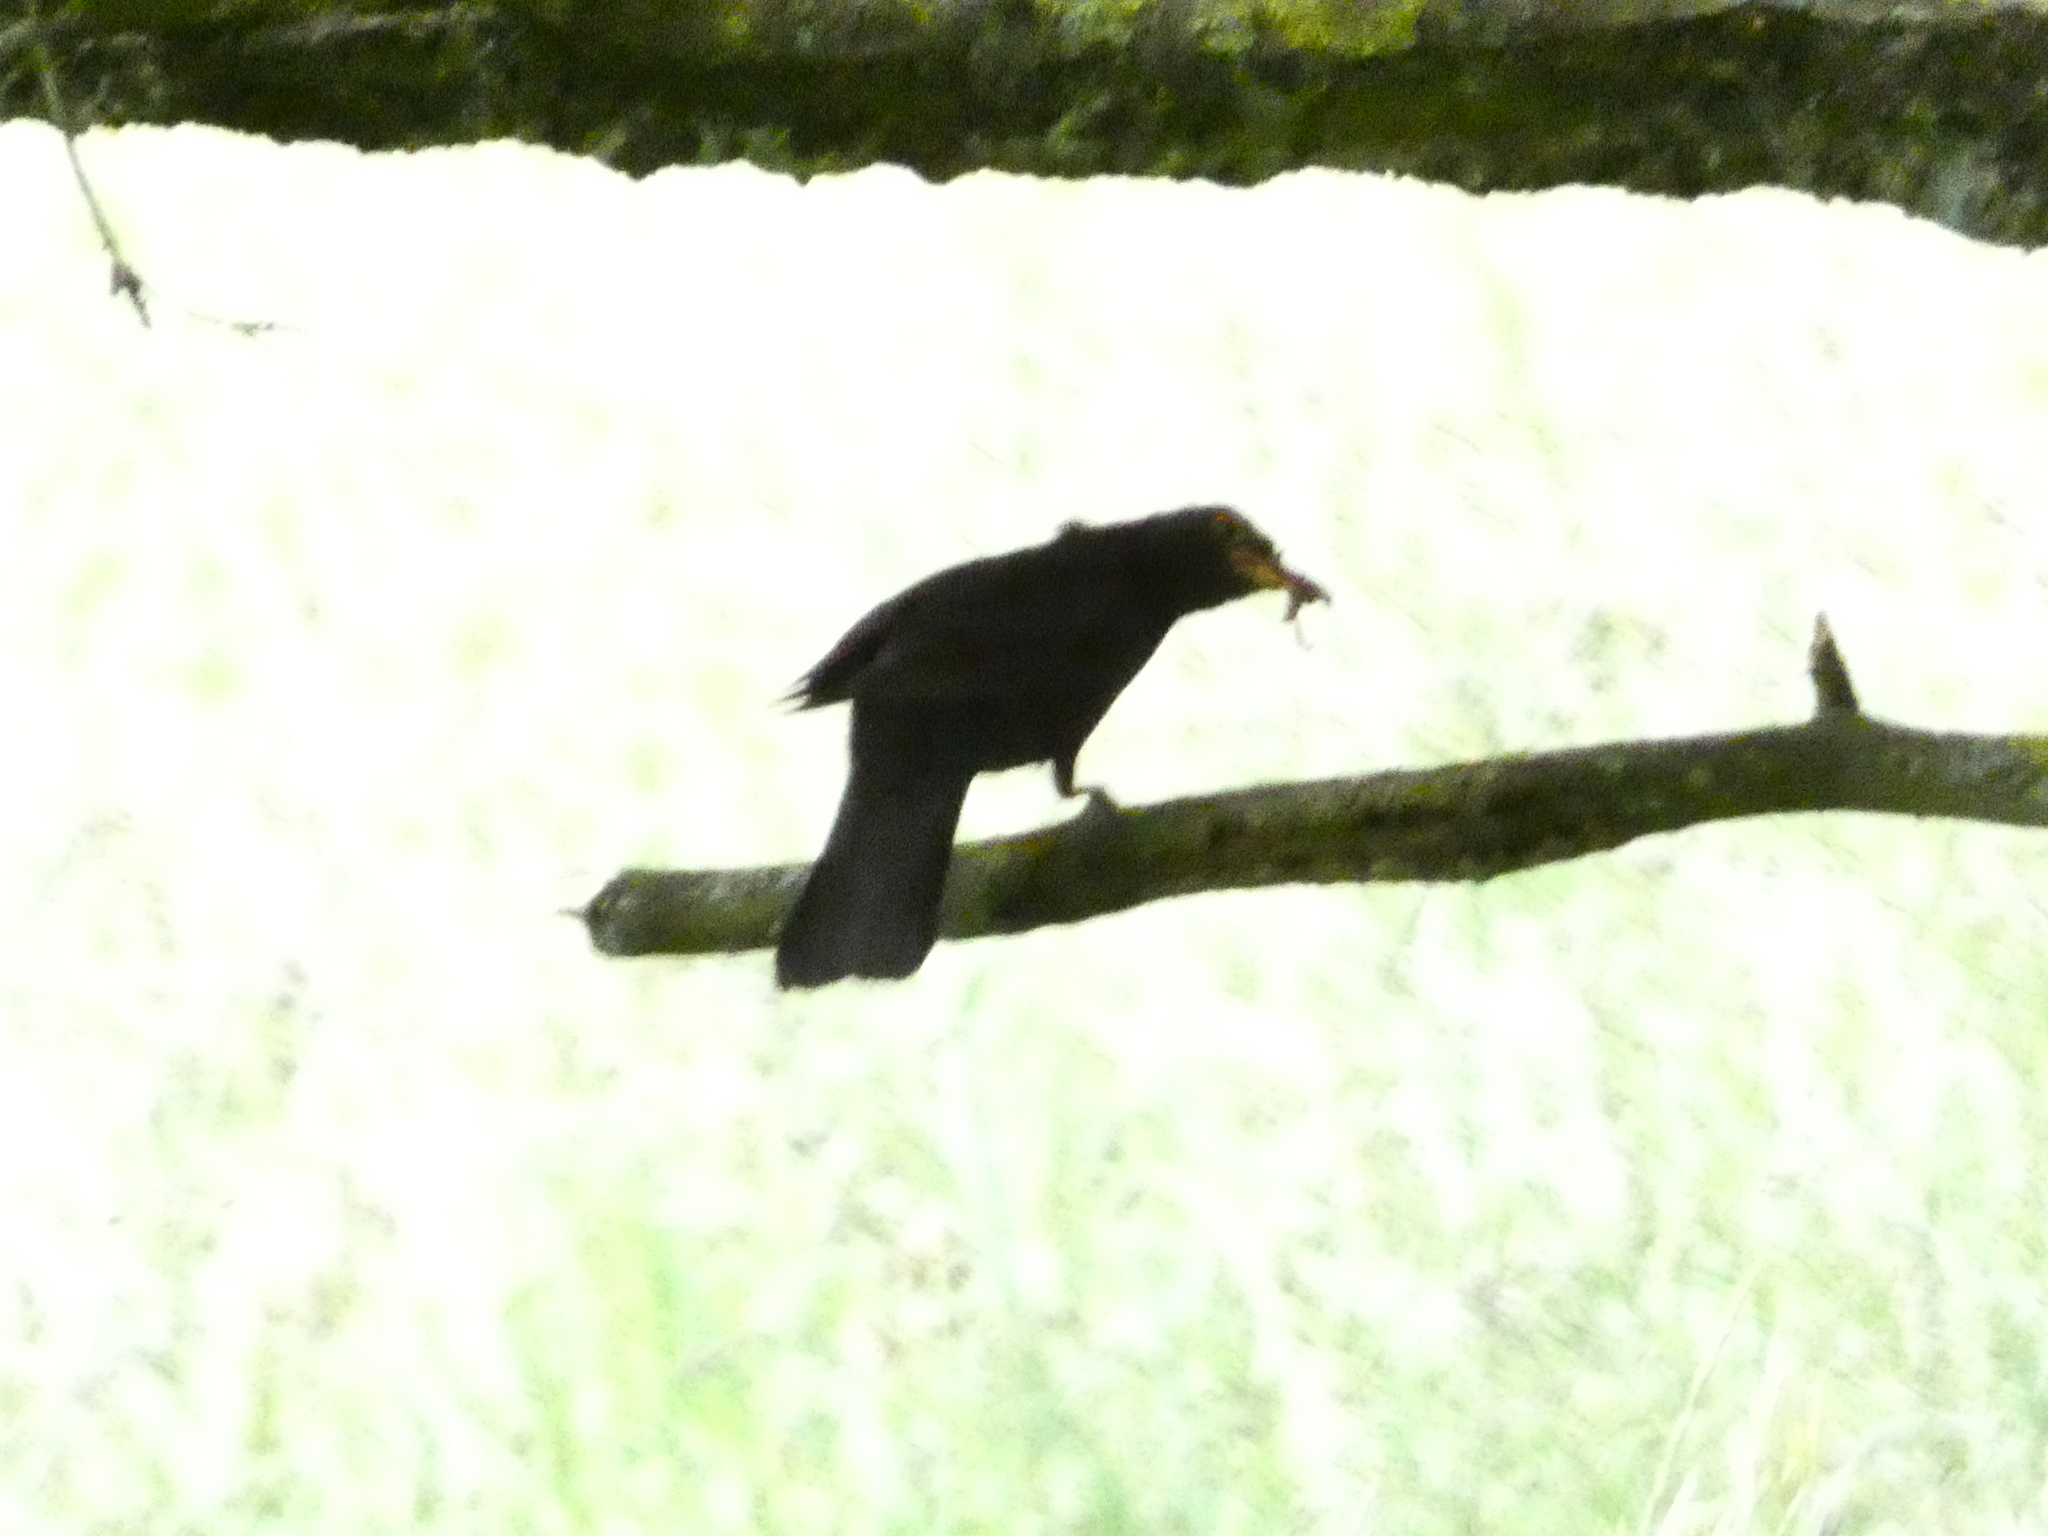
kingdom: Animalia
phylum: Chordata
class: Aves
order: Passeriformes
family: Turdidae
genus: Turdus
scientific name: Turdus merula
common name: Common blackbird
